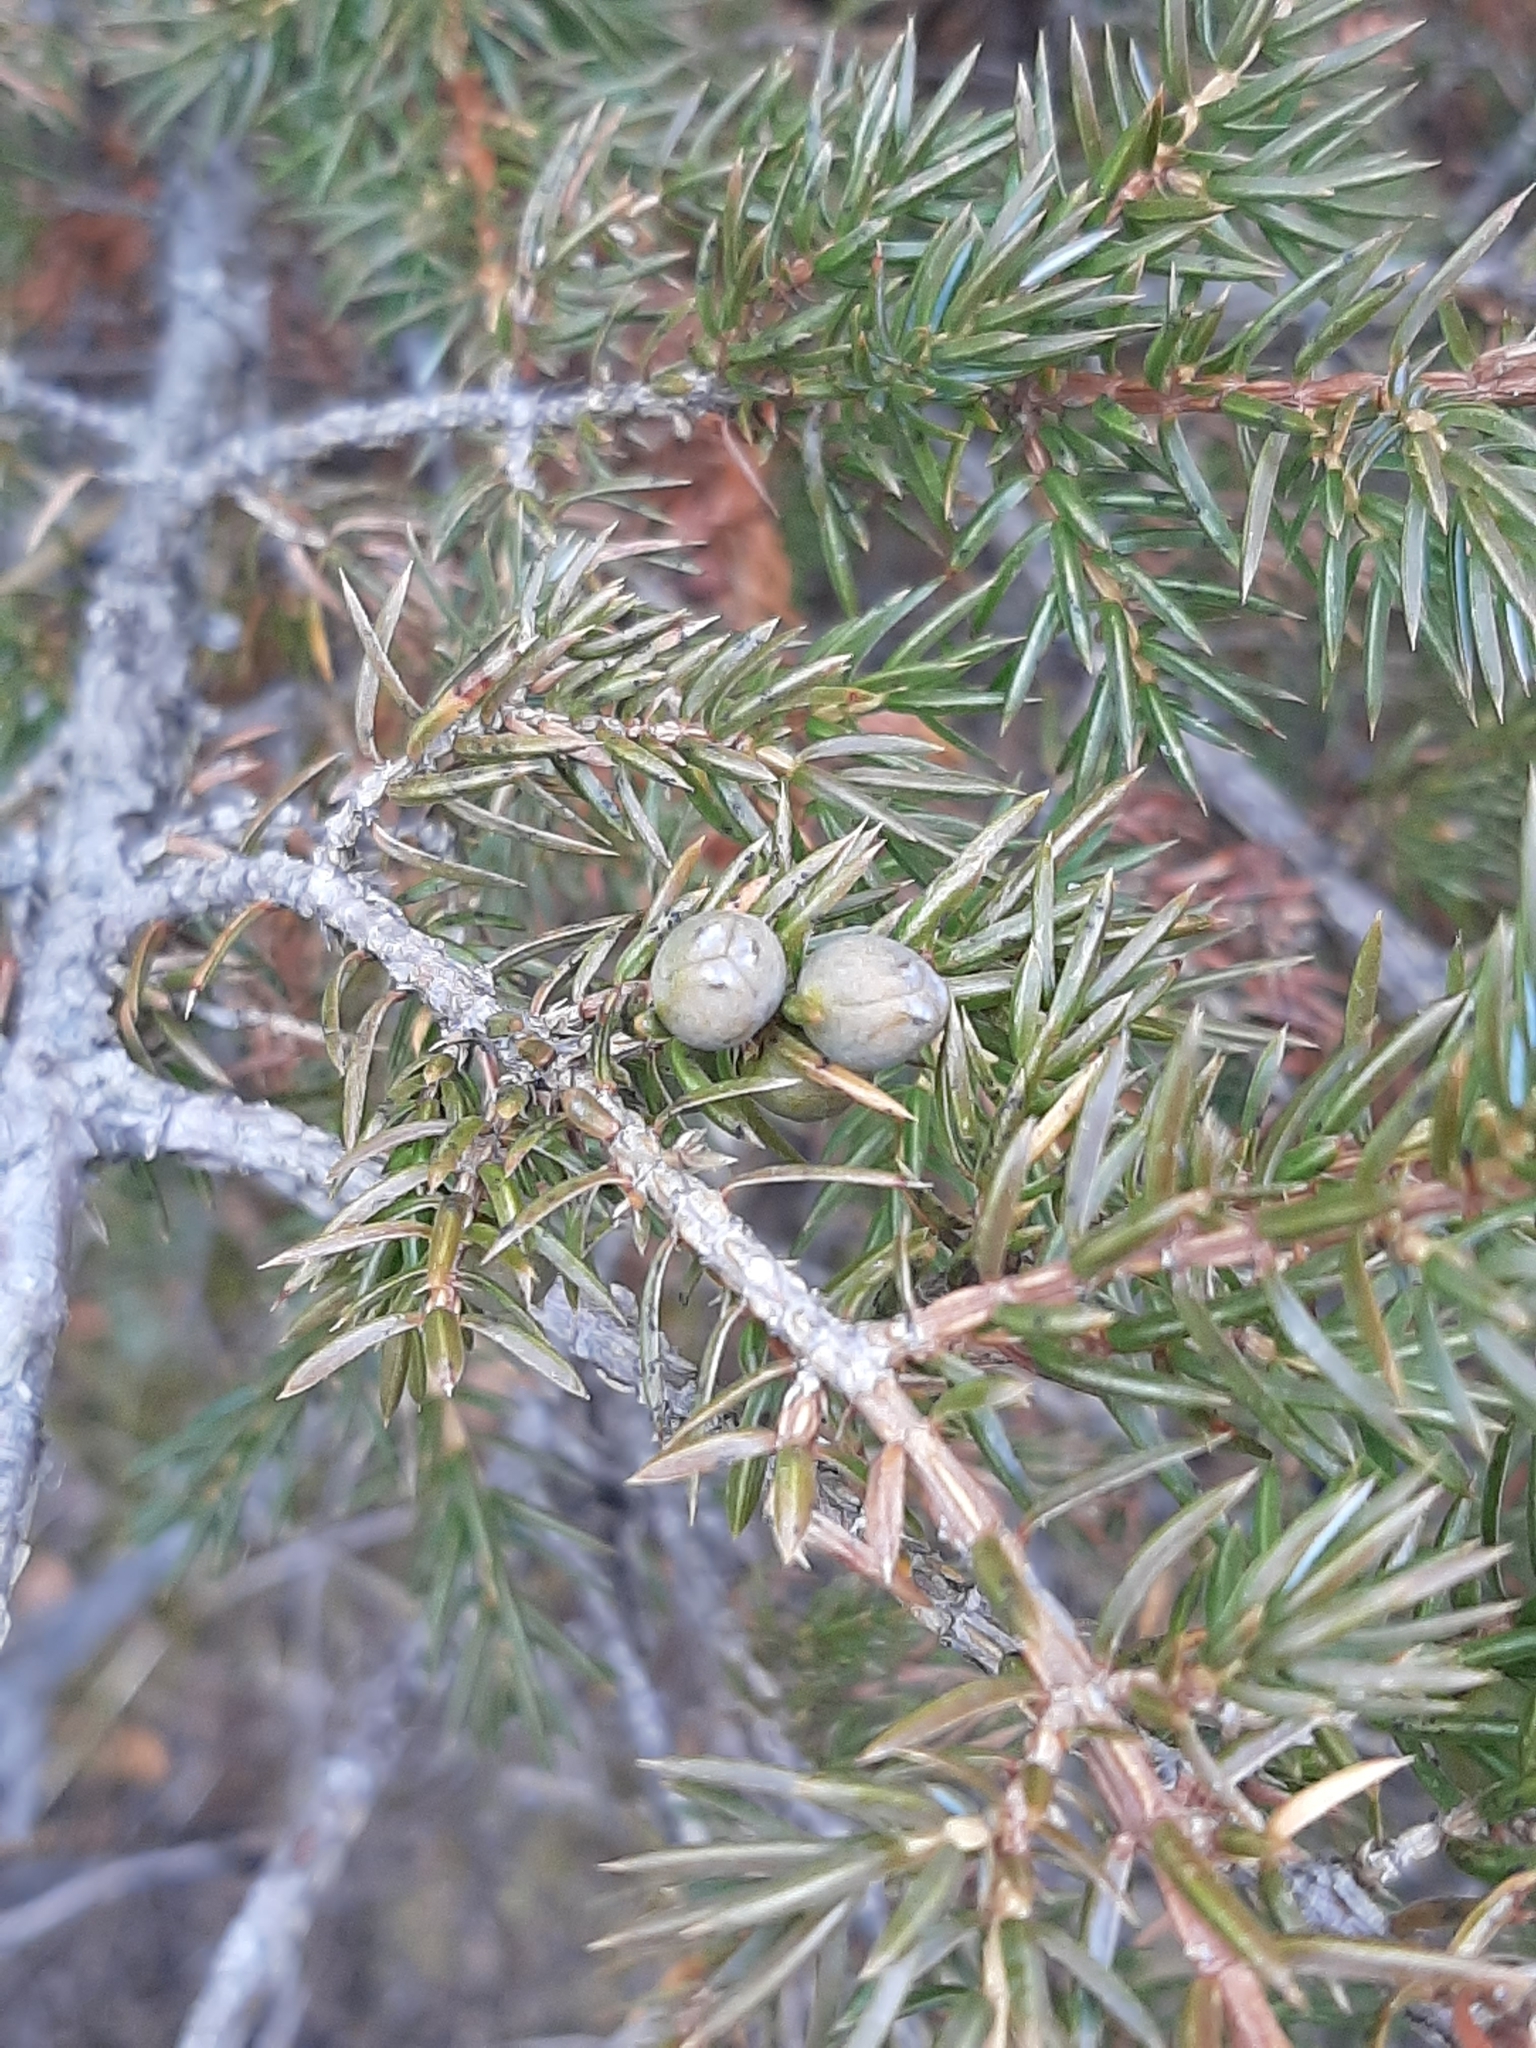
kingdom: Plantae
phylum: Tracheophyta
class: Pinopsida
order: Pinales
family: Cupressaceae
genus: Juniperus
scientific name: Juniperus communis
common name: Common juniper
